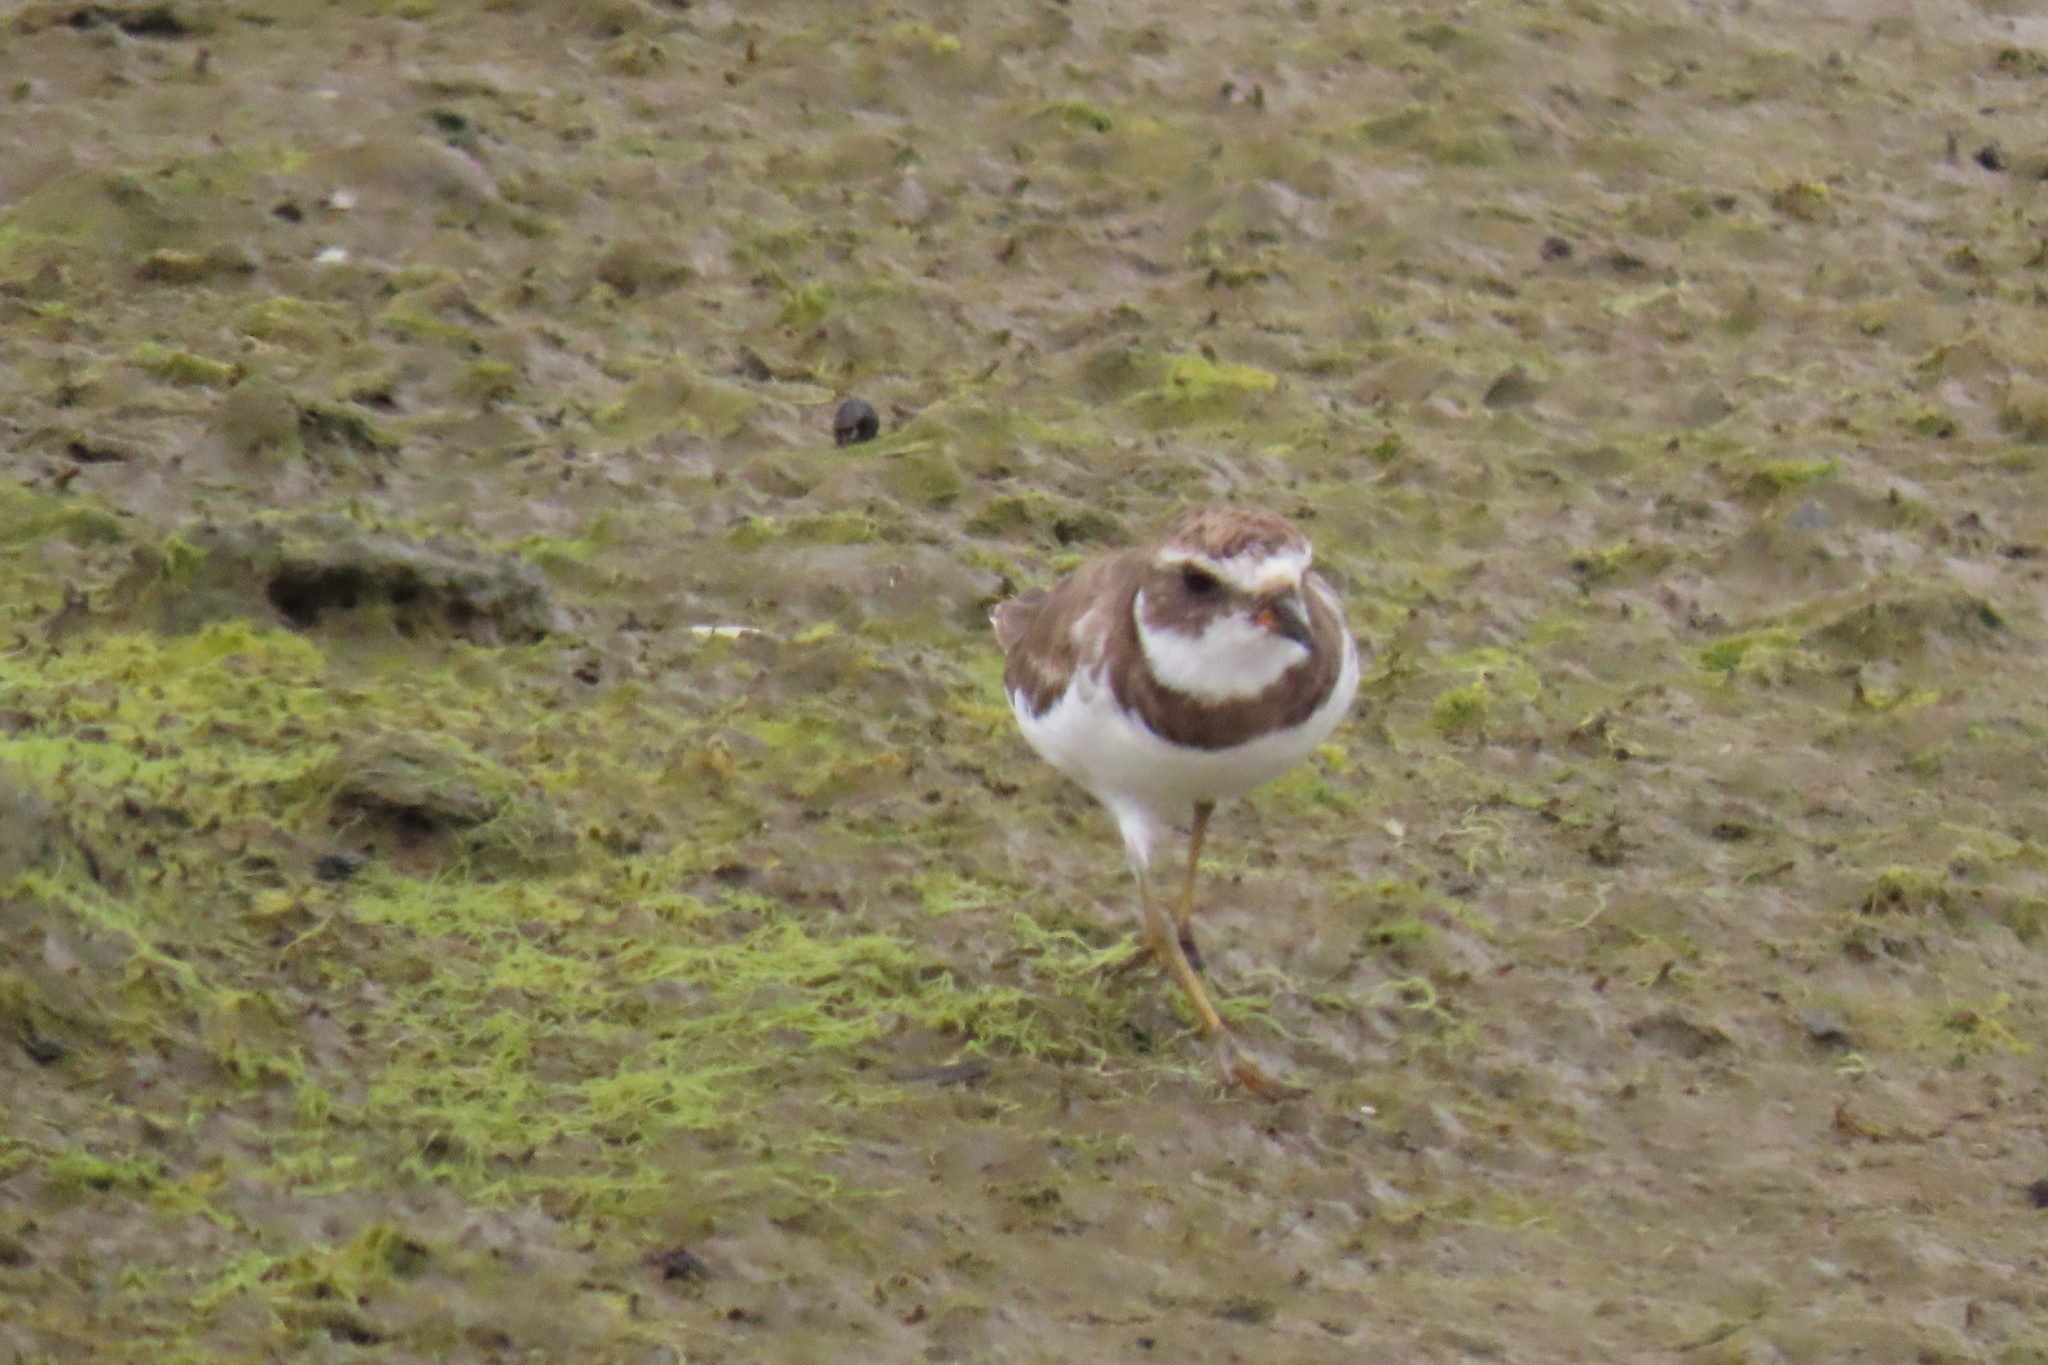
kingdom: Animalia
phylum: Chordata
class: Aves
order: Charadriiformes
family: Charadriidae
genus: Charadrius
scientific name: Charadrius semipalmatus
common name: Semipalmated plover
